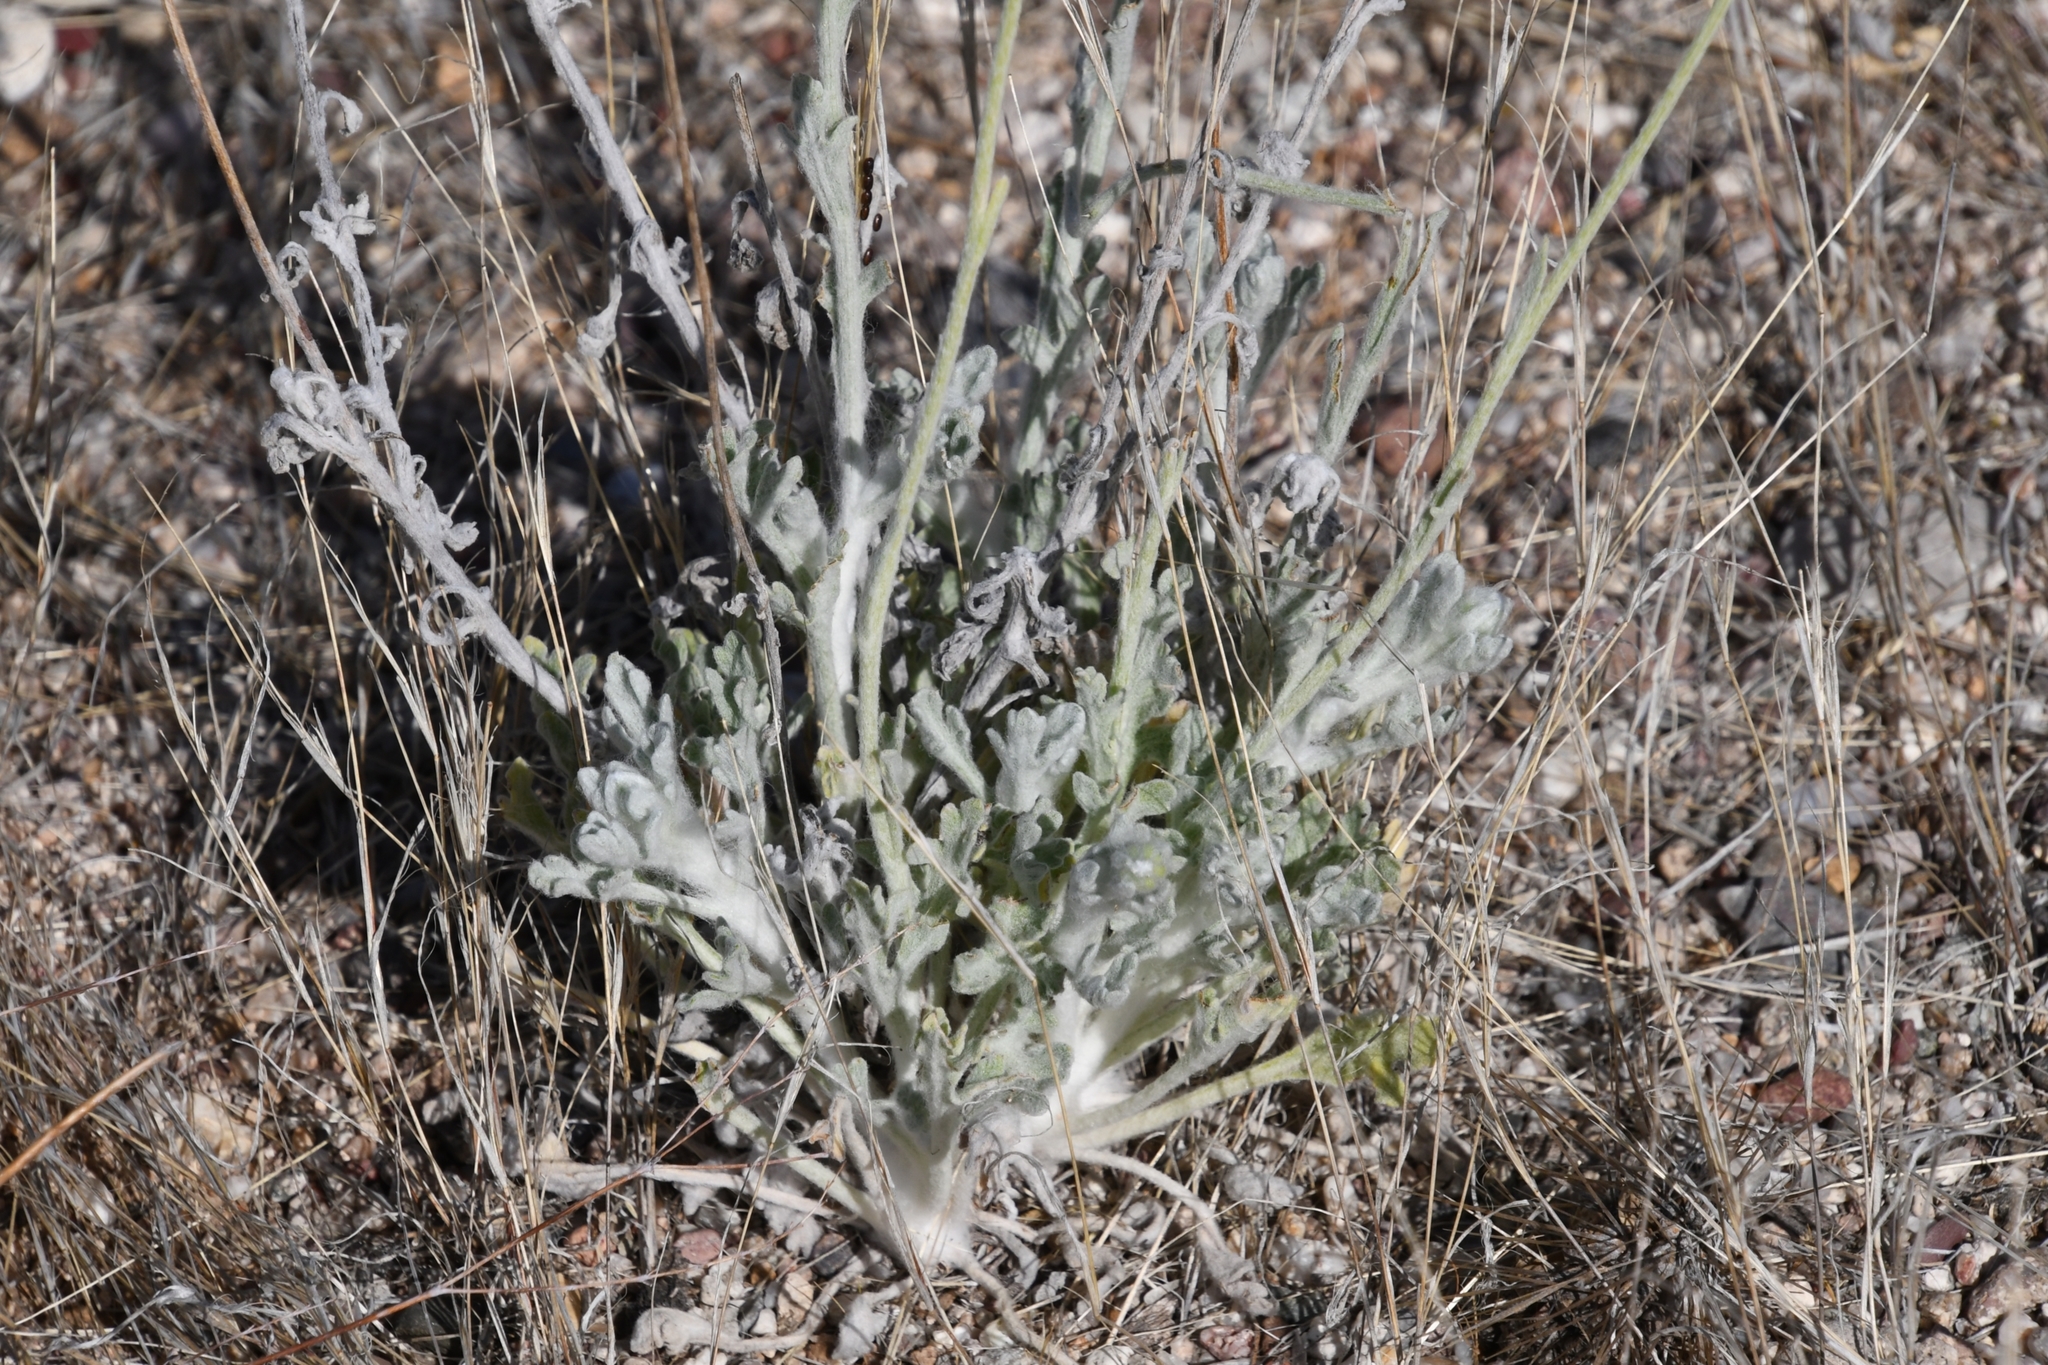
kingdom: Plantae
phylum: Tracheophyta
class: Magnoliopsida
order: Asterales
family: Asteraceae
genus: Baileya
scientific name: Baileya multiradiata
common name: Desert-marigold
